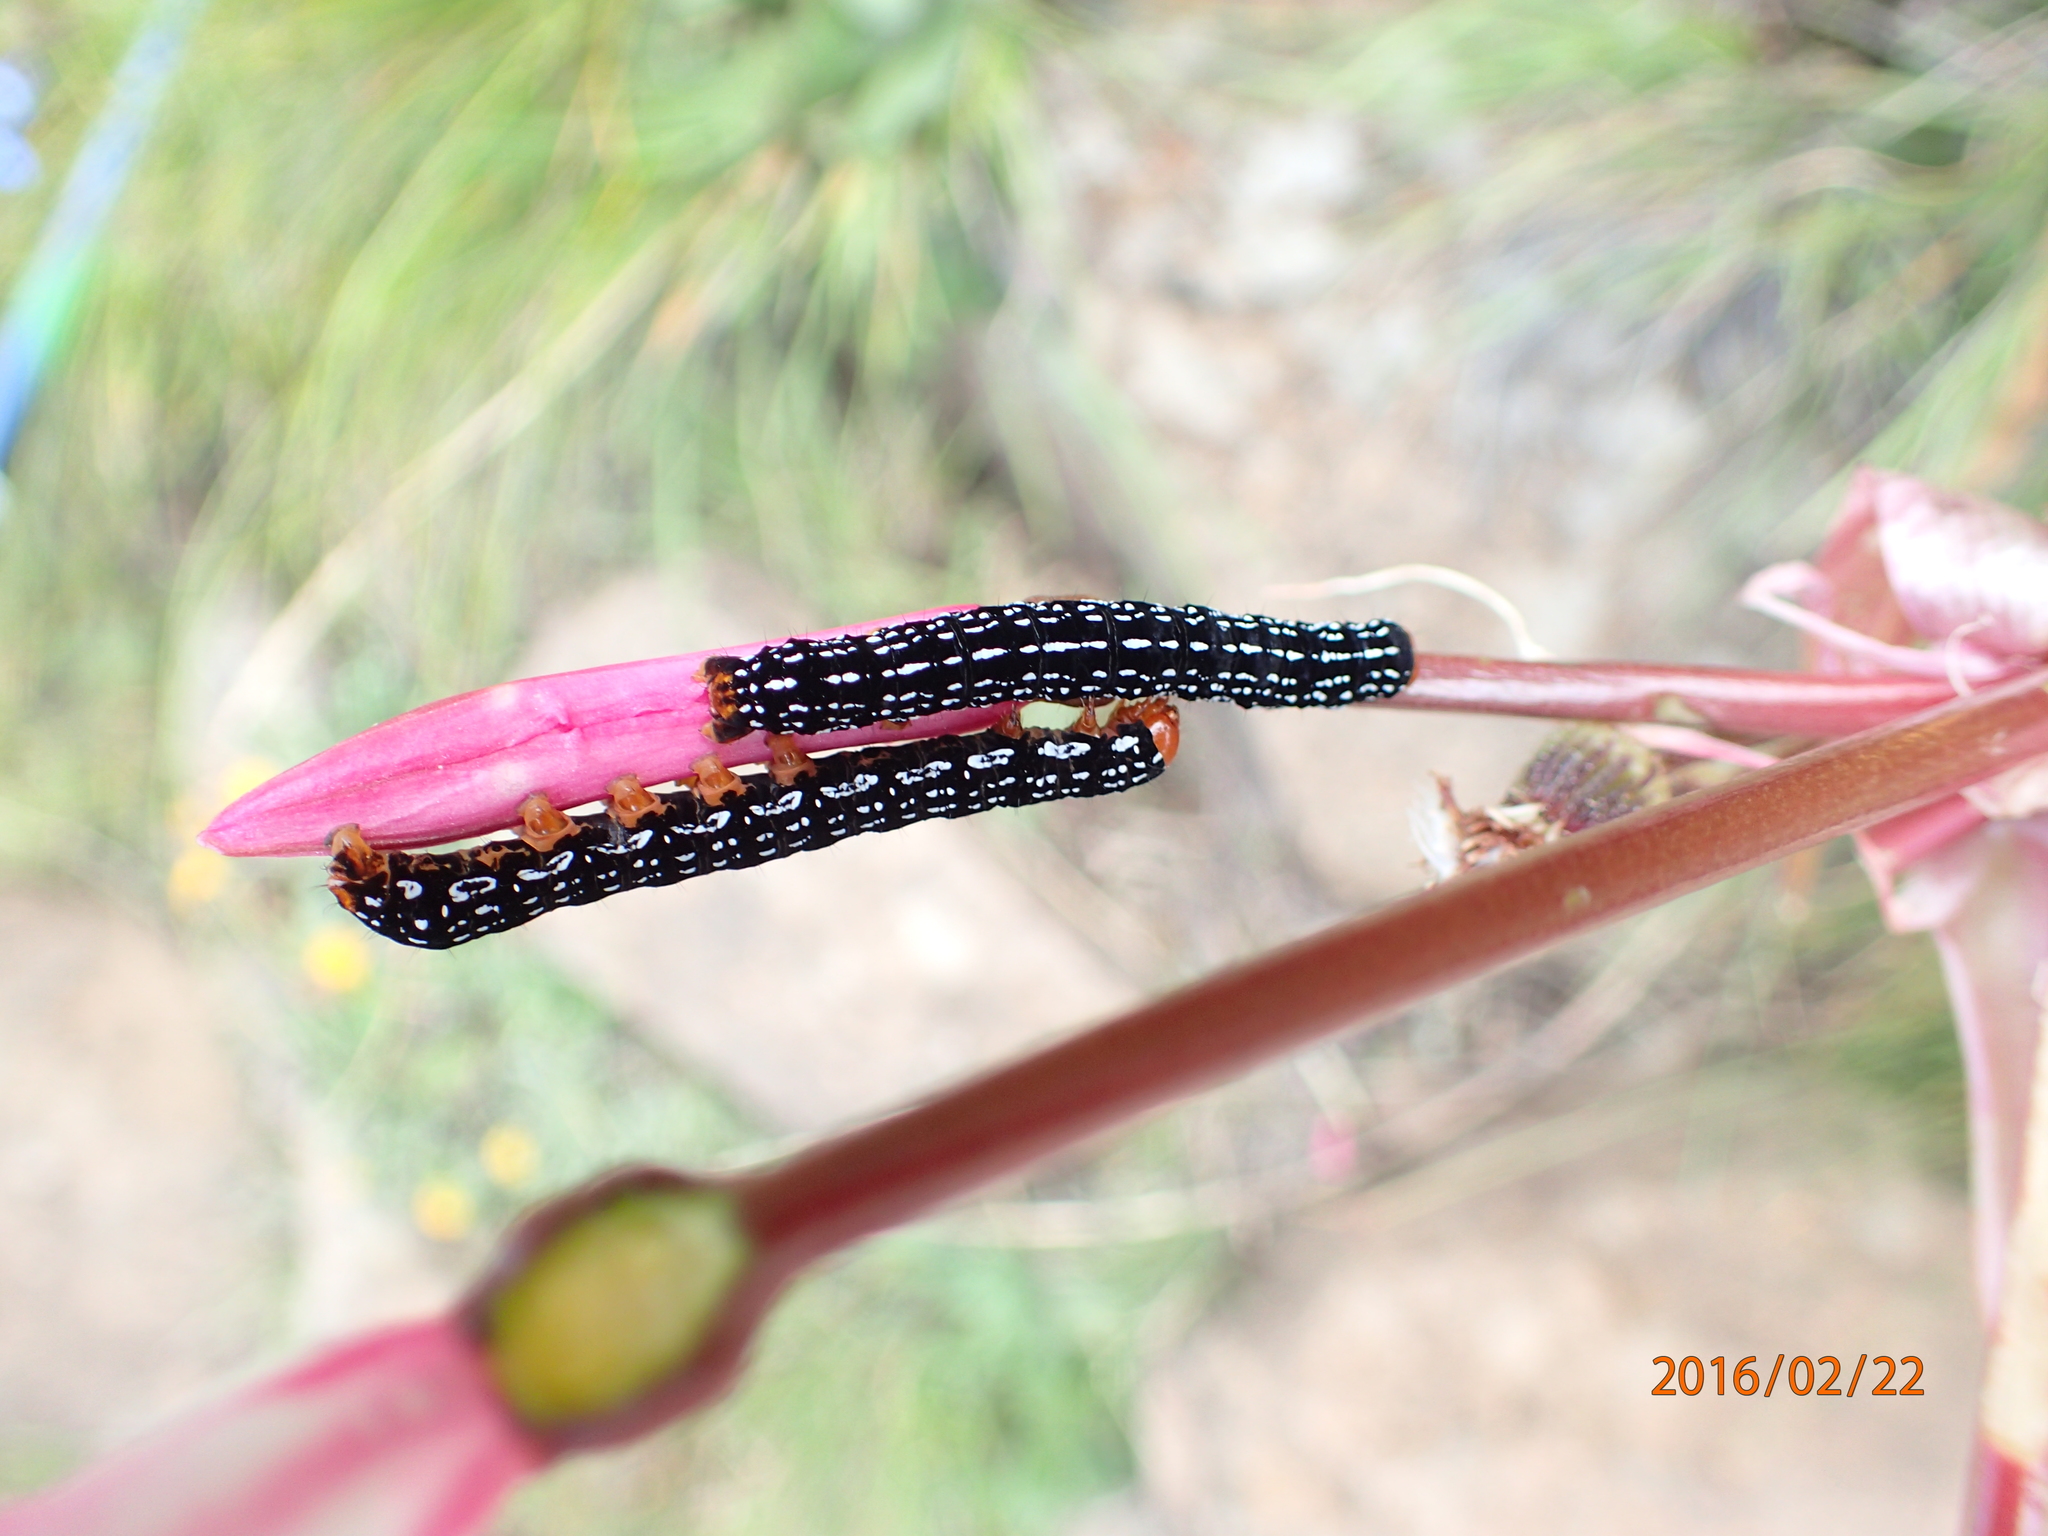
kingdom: Plantae
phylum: Tracheophyta
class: Liliopsida
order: Asparagales
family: Amaryllidaceae
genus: Nerine
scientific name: Nerine bowdenii
